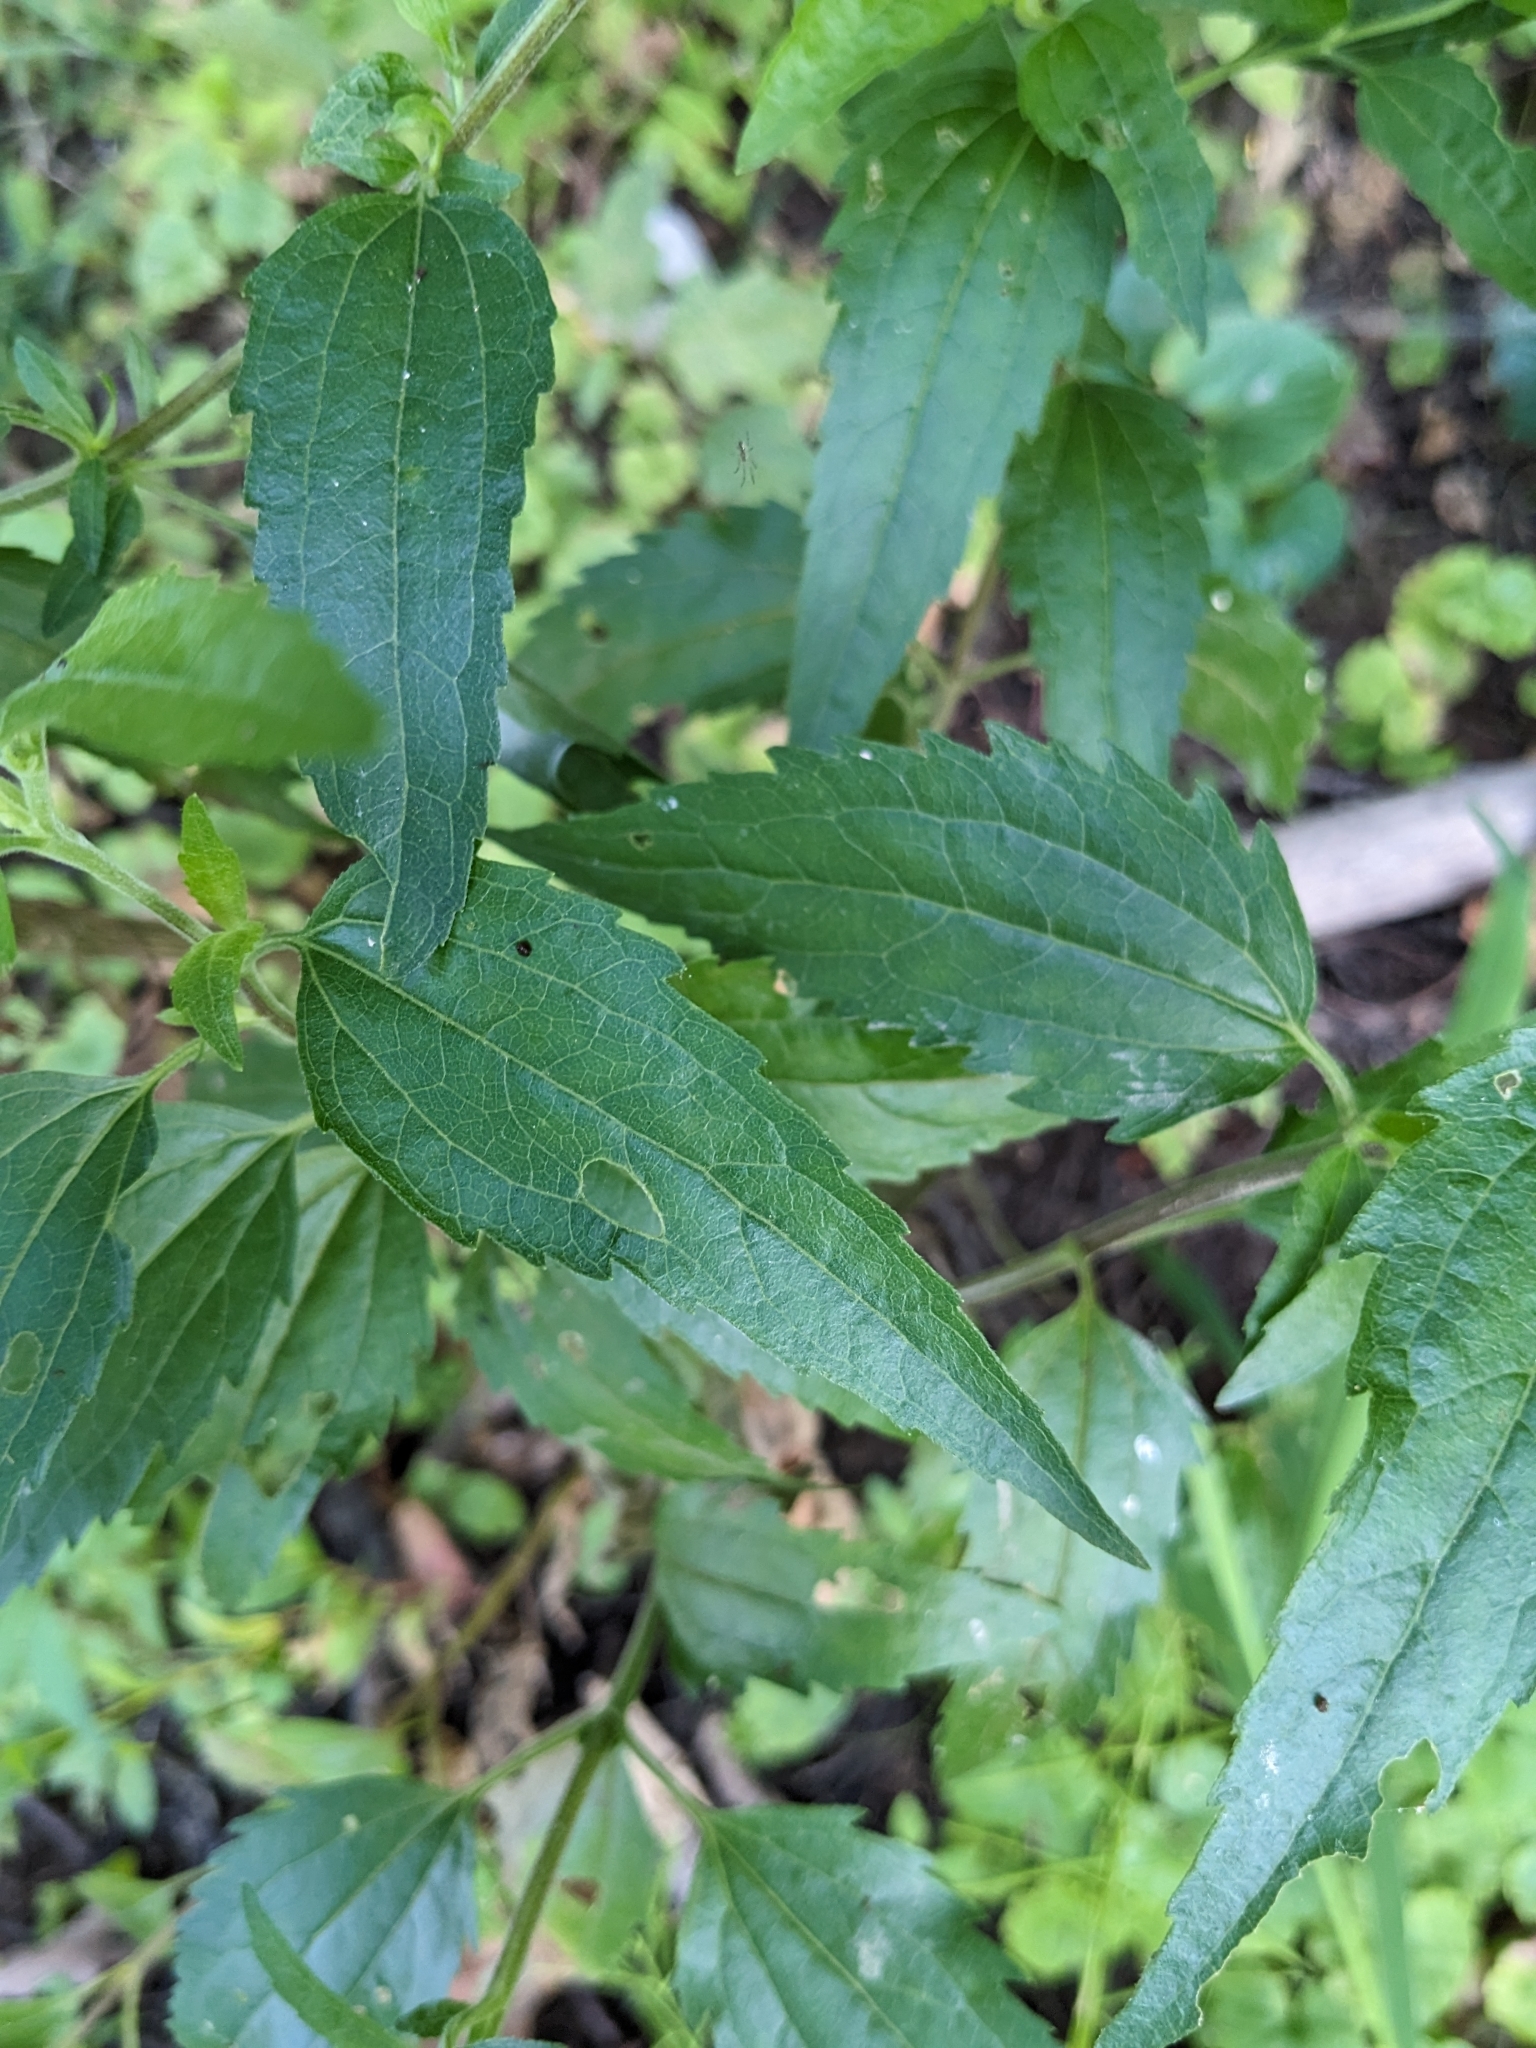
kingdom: Plantae
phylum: Tracheophyta
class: Magnoliopsida
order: Asterales
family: Asteraceae
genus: Eupatorium
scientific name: Eupatorium serotinum
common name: Late boneset
